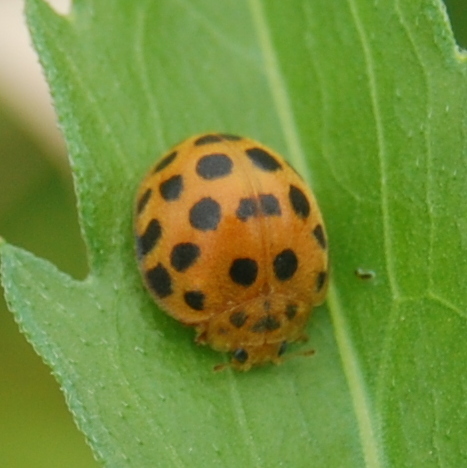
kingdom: Animalia
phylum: Arthropoda
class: Insecta
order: Coleoptera
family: Coccinellidae
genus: Henosepilachna
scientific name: Henosepilachna vigintioctopunctata
